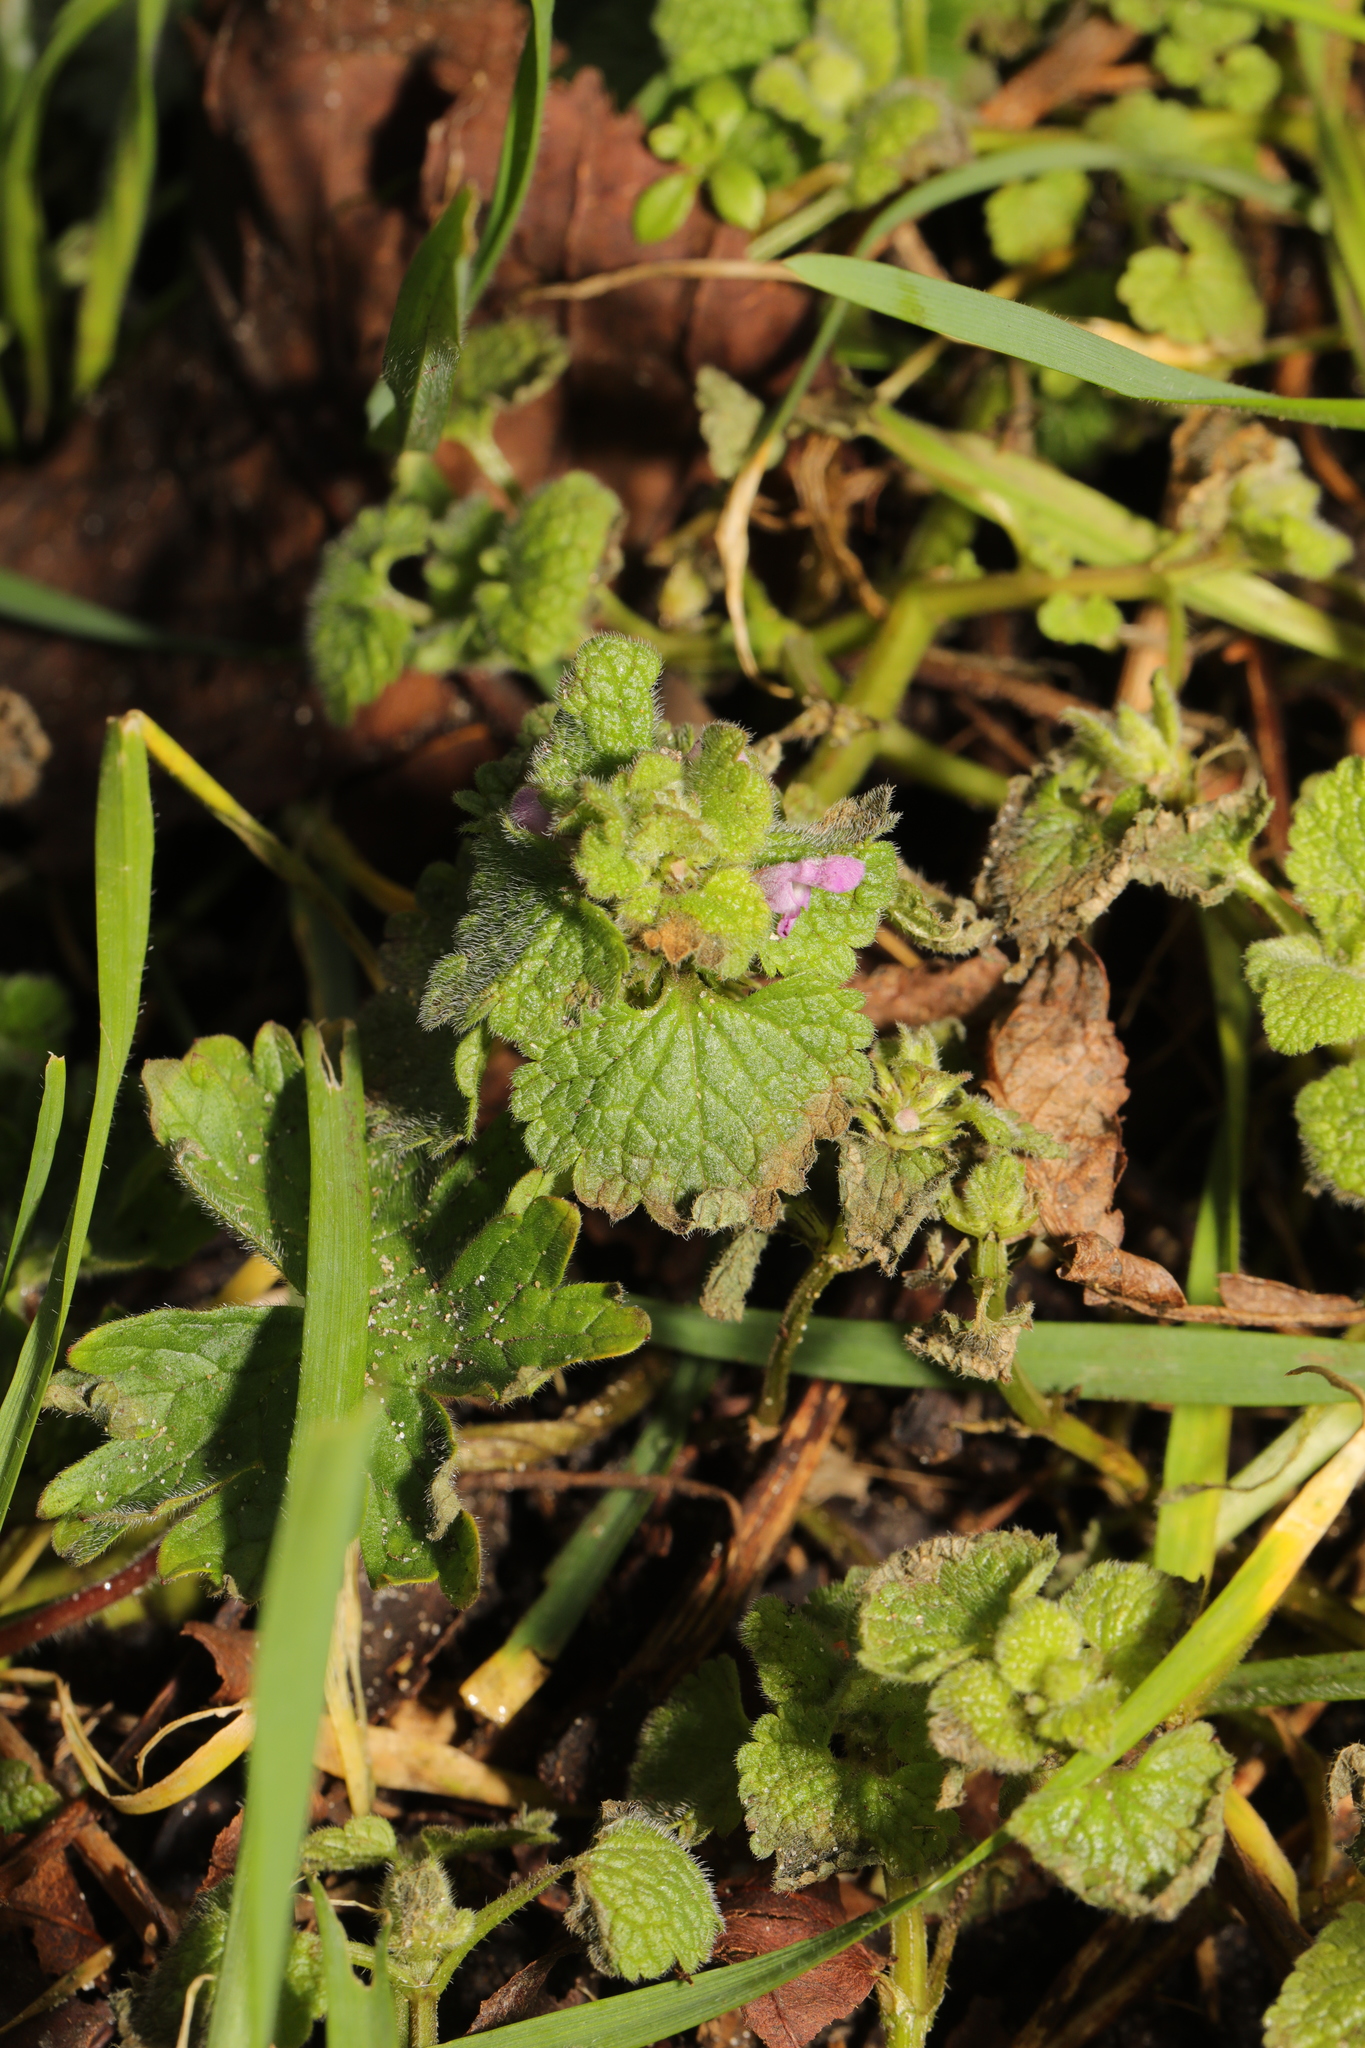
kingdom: Plantae
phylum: Tracheophyta
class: Magnoliopsida
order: Lamiales
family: Lamiaceae
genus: Lamium
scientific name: Lamium purpureum
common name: Red dead-nettle
